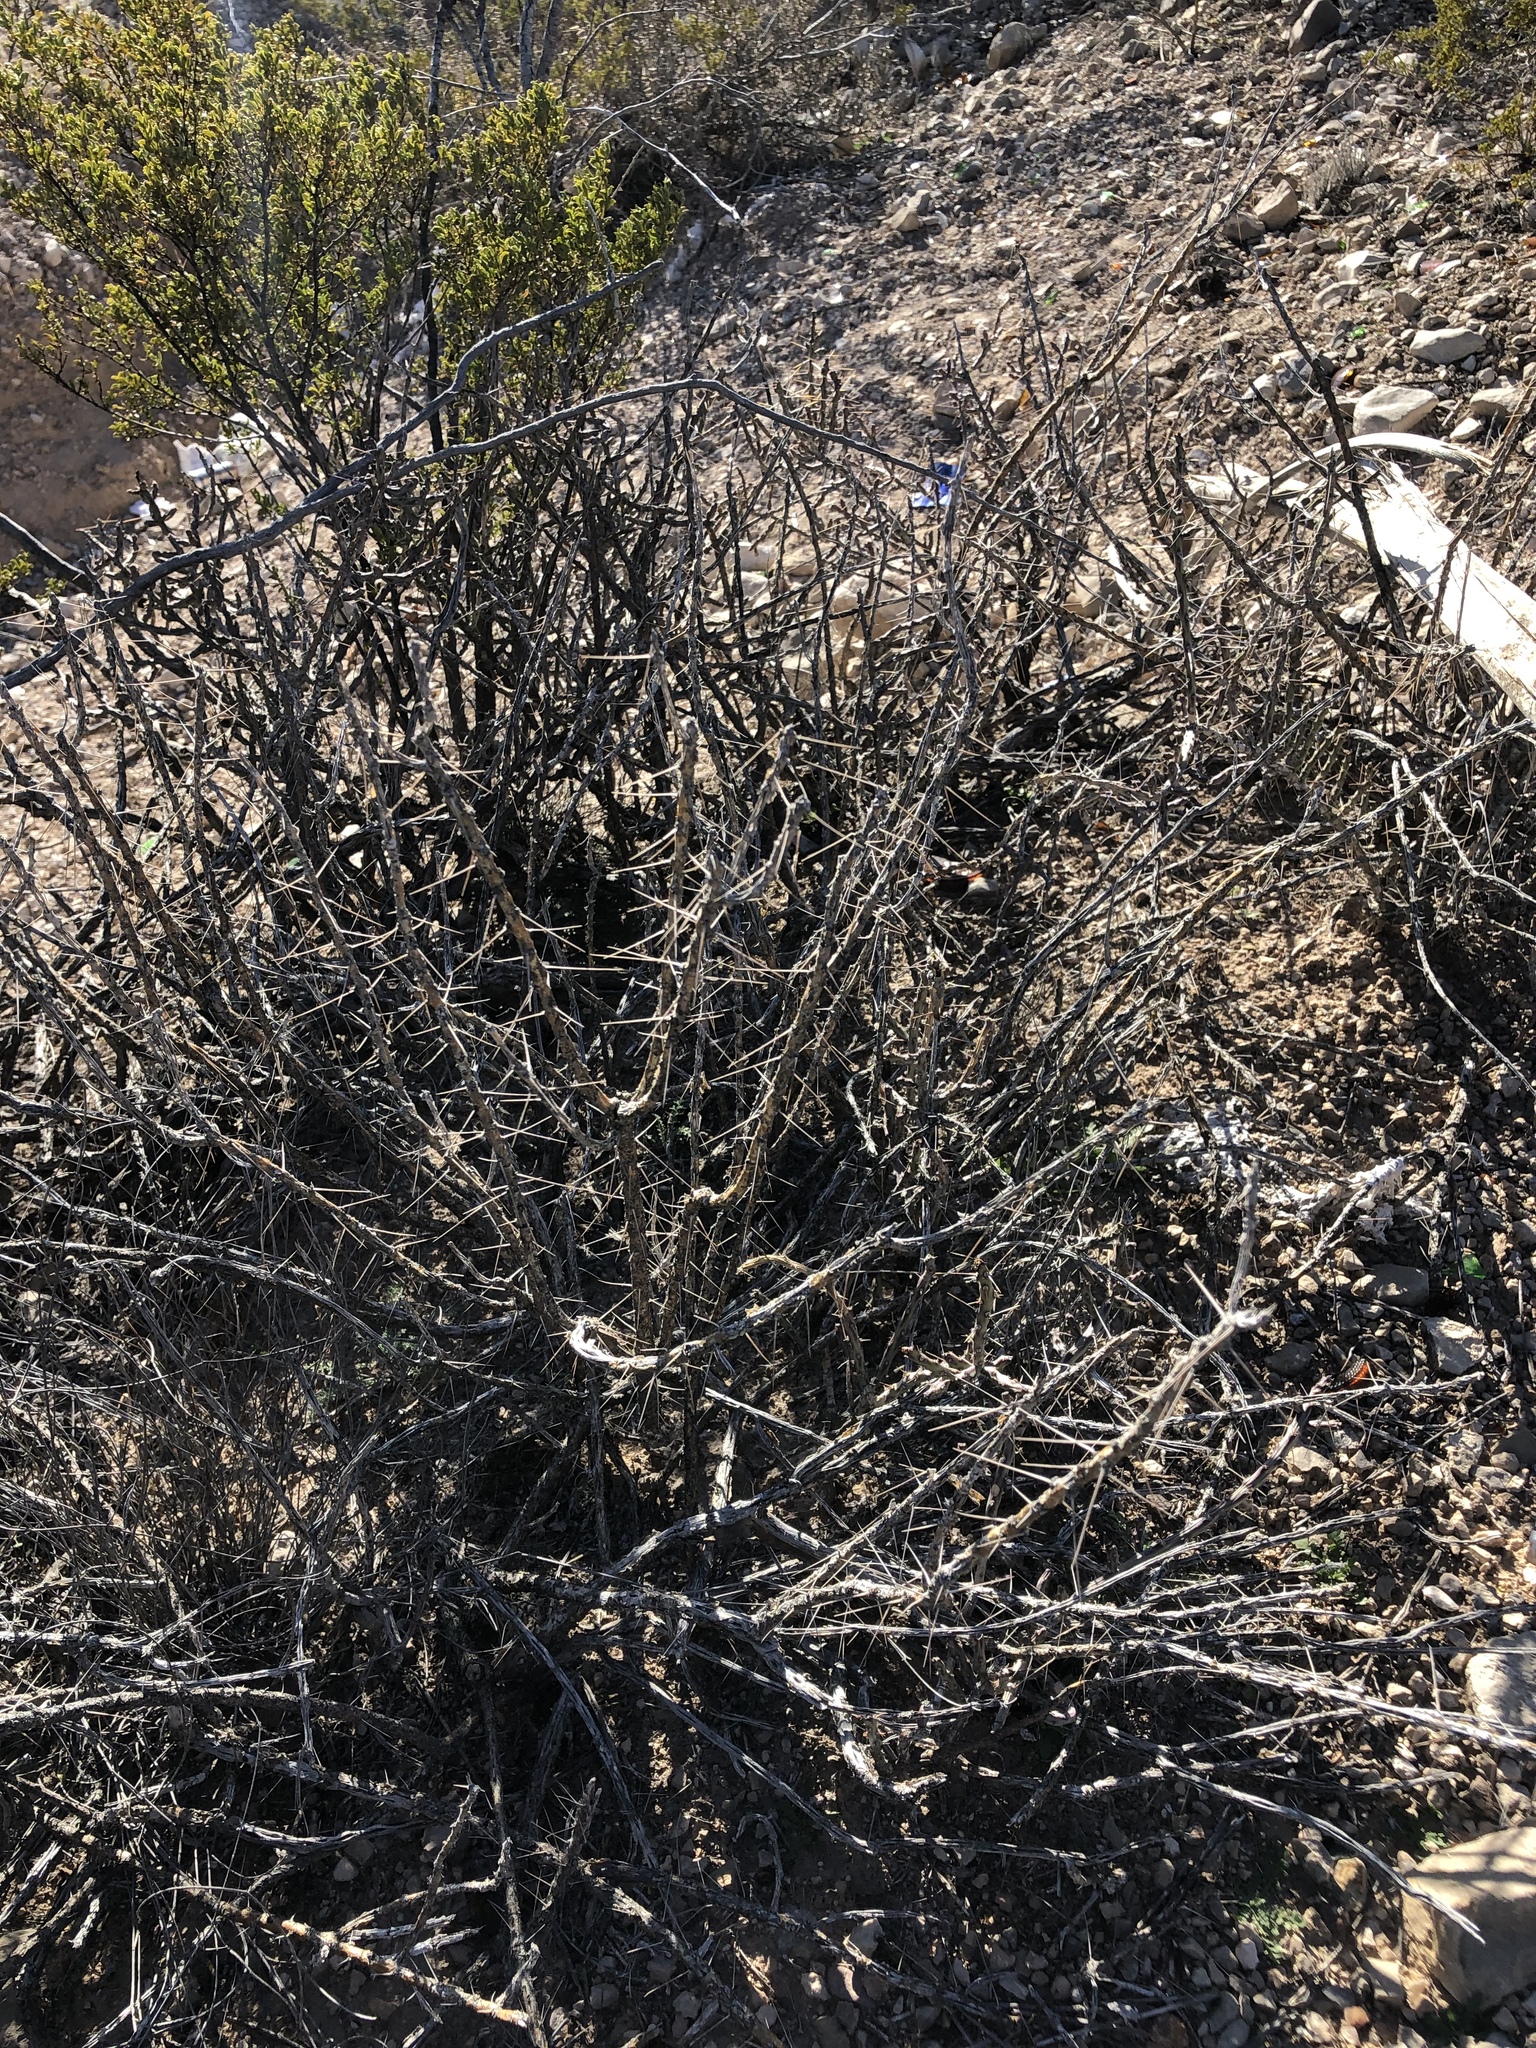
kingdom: Plantae
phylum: Tracheophyta
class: Magnoliopsida
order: Caryophyllales
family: Cactaceae
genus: Cylindropuntia
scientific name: Cylindropuntia leptocaulis
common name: Christmas cactus
